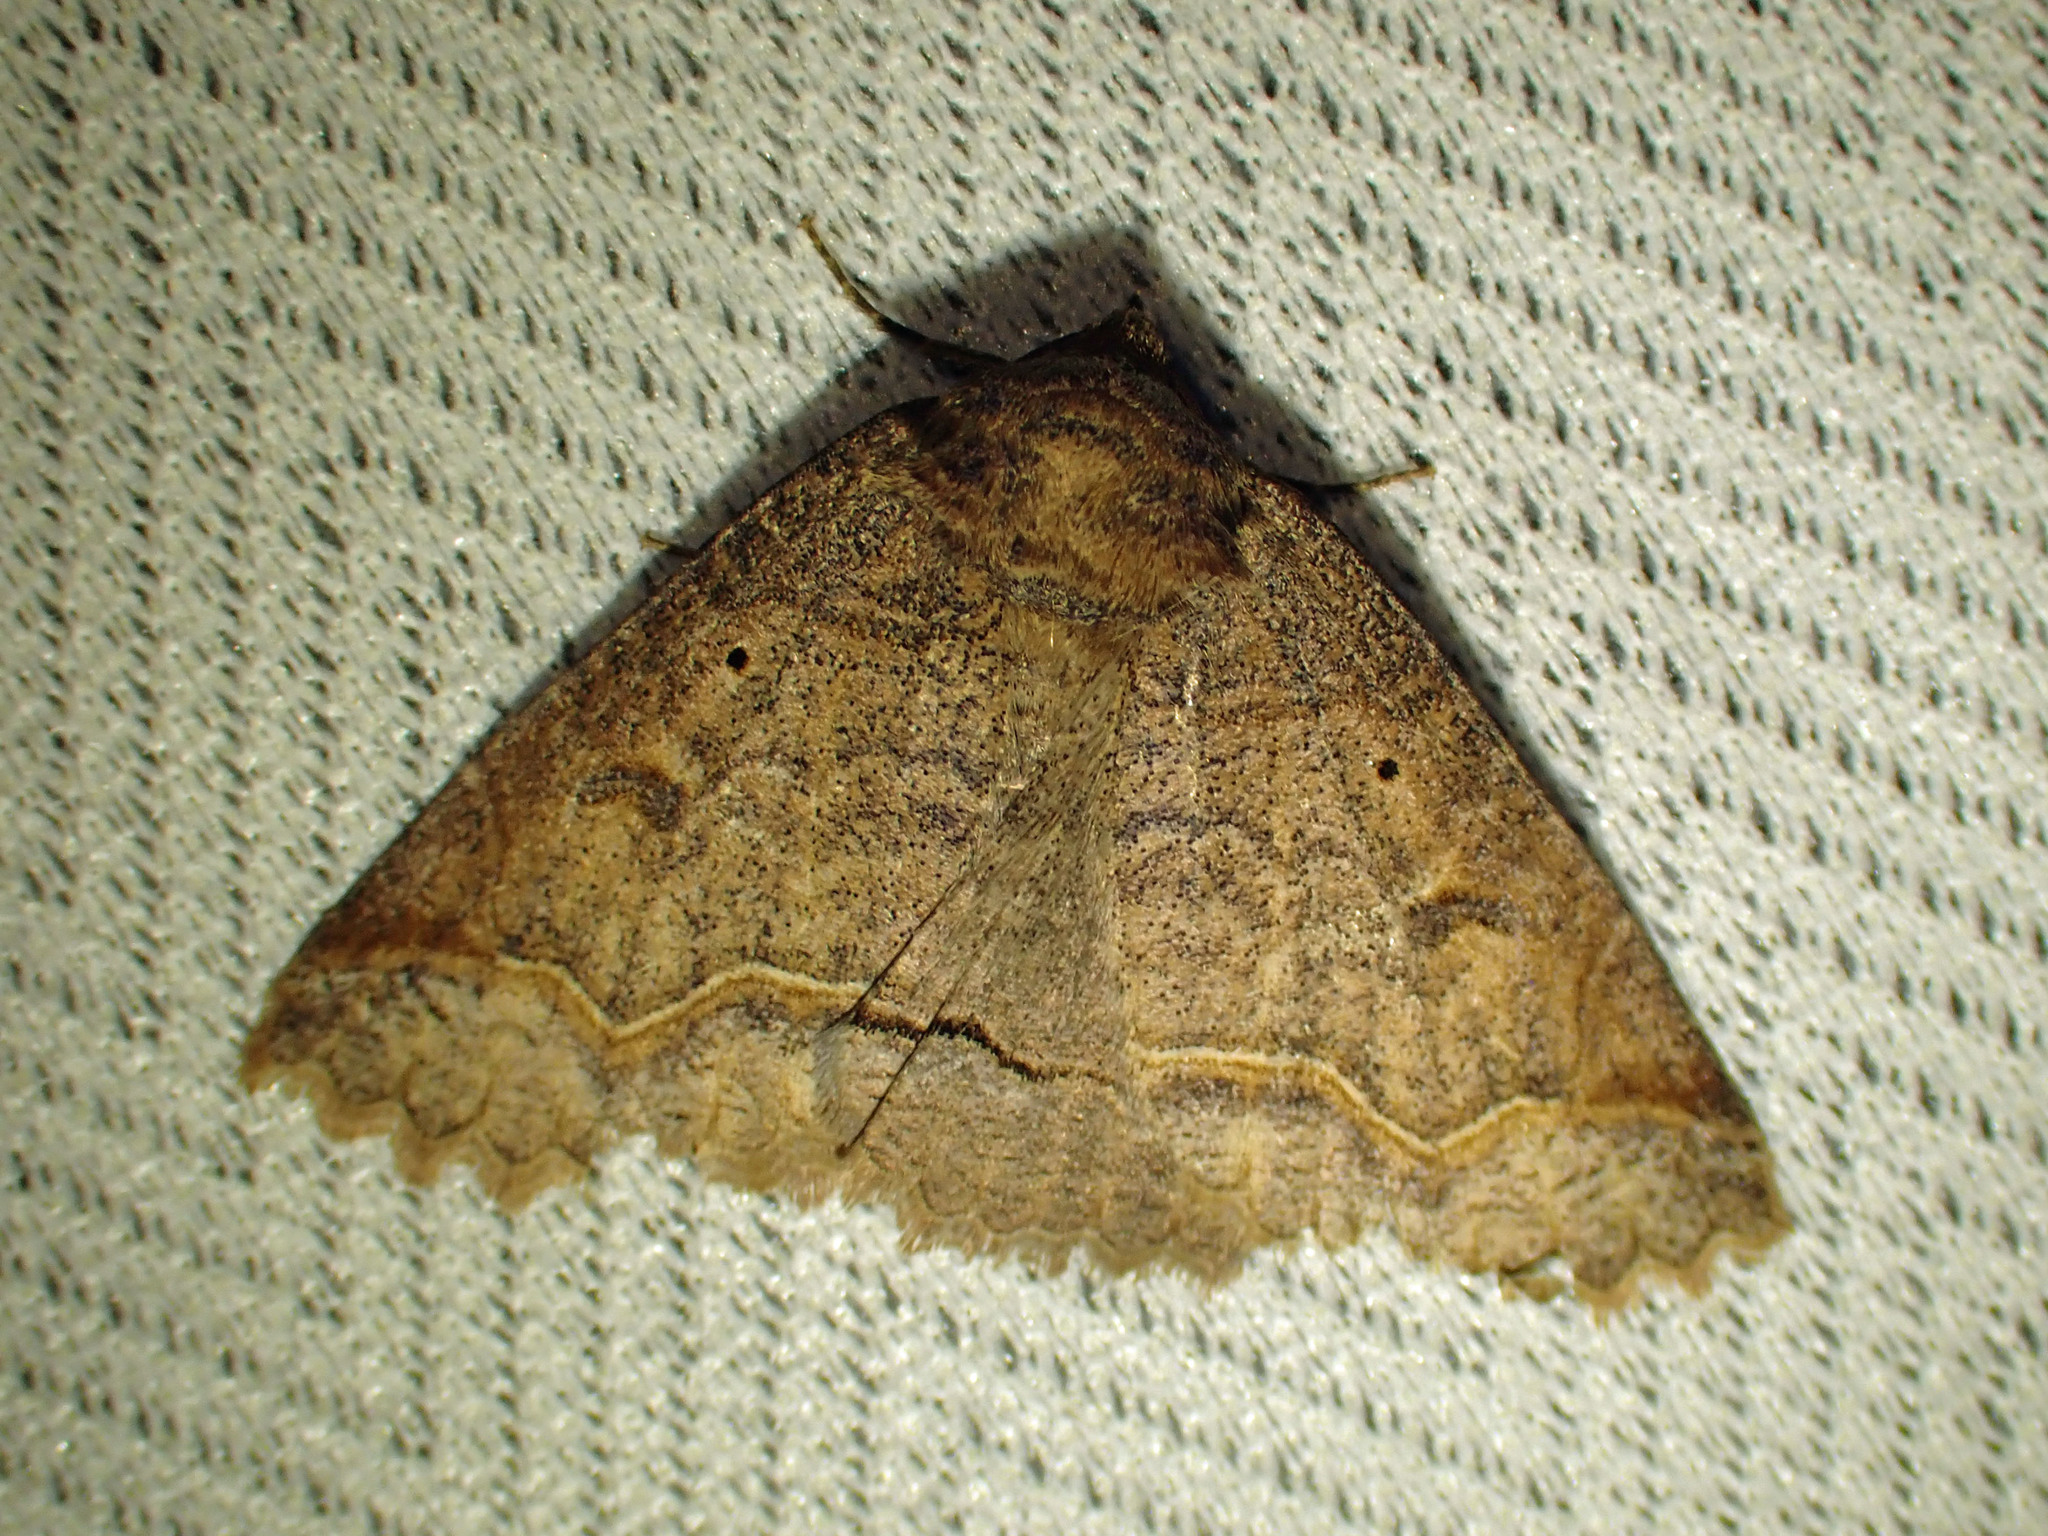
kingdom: Animalia
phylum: Arthropoda
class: Insecta
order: Lepidoptera
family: Erebidae
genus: Zale
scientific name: Zale unilineata
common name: One-lined zale moth
